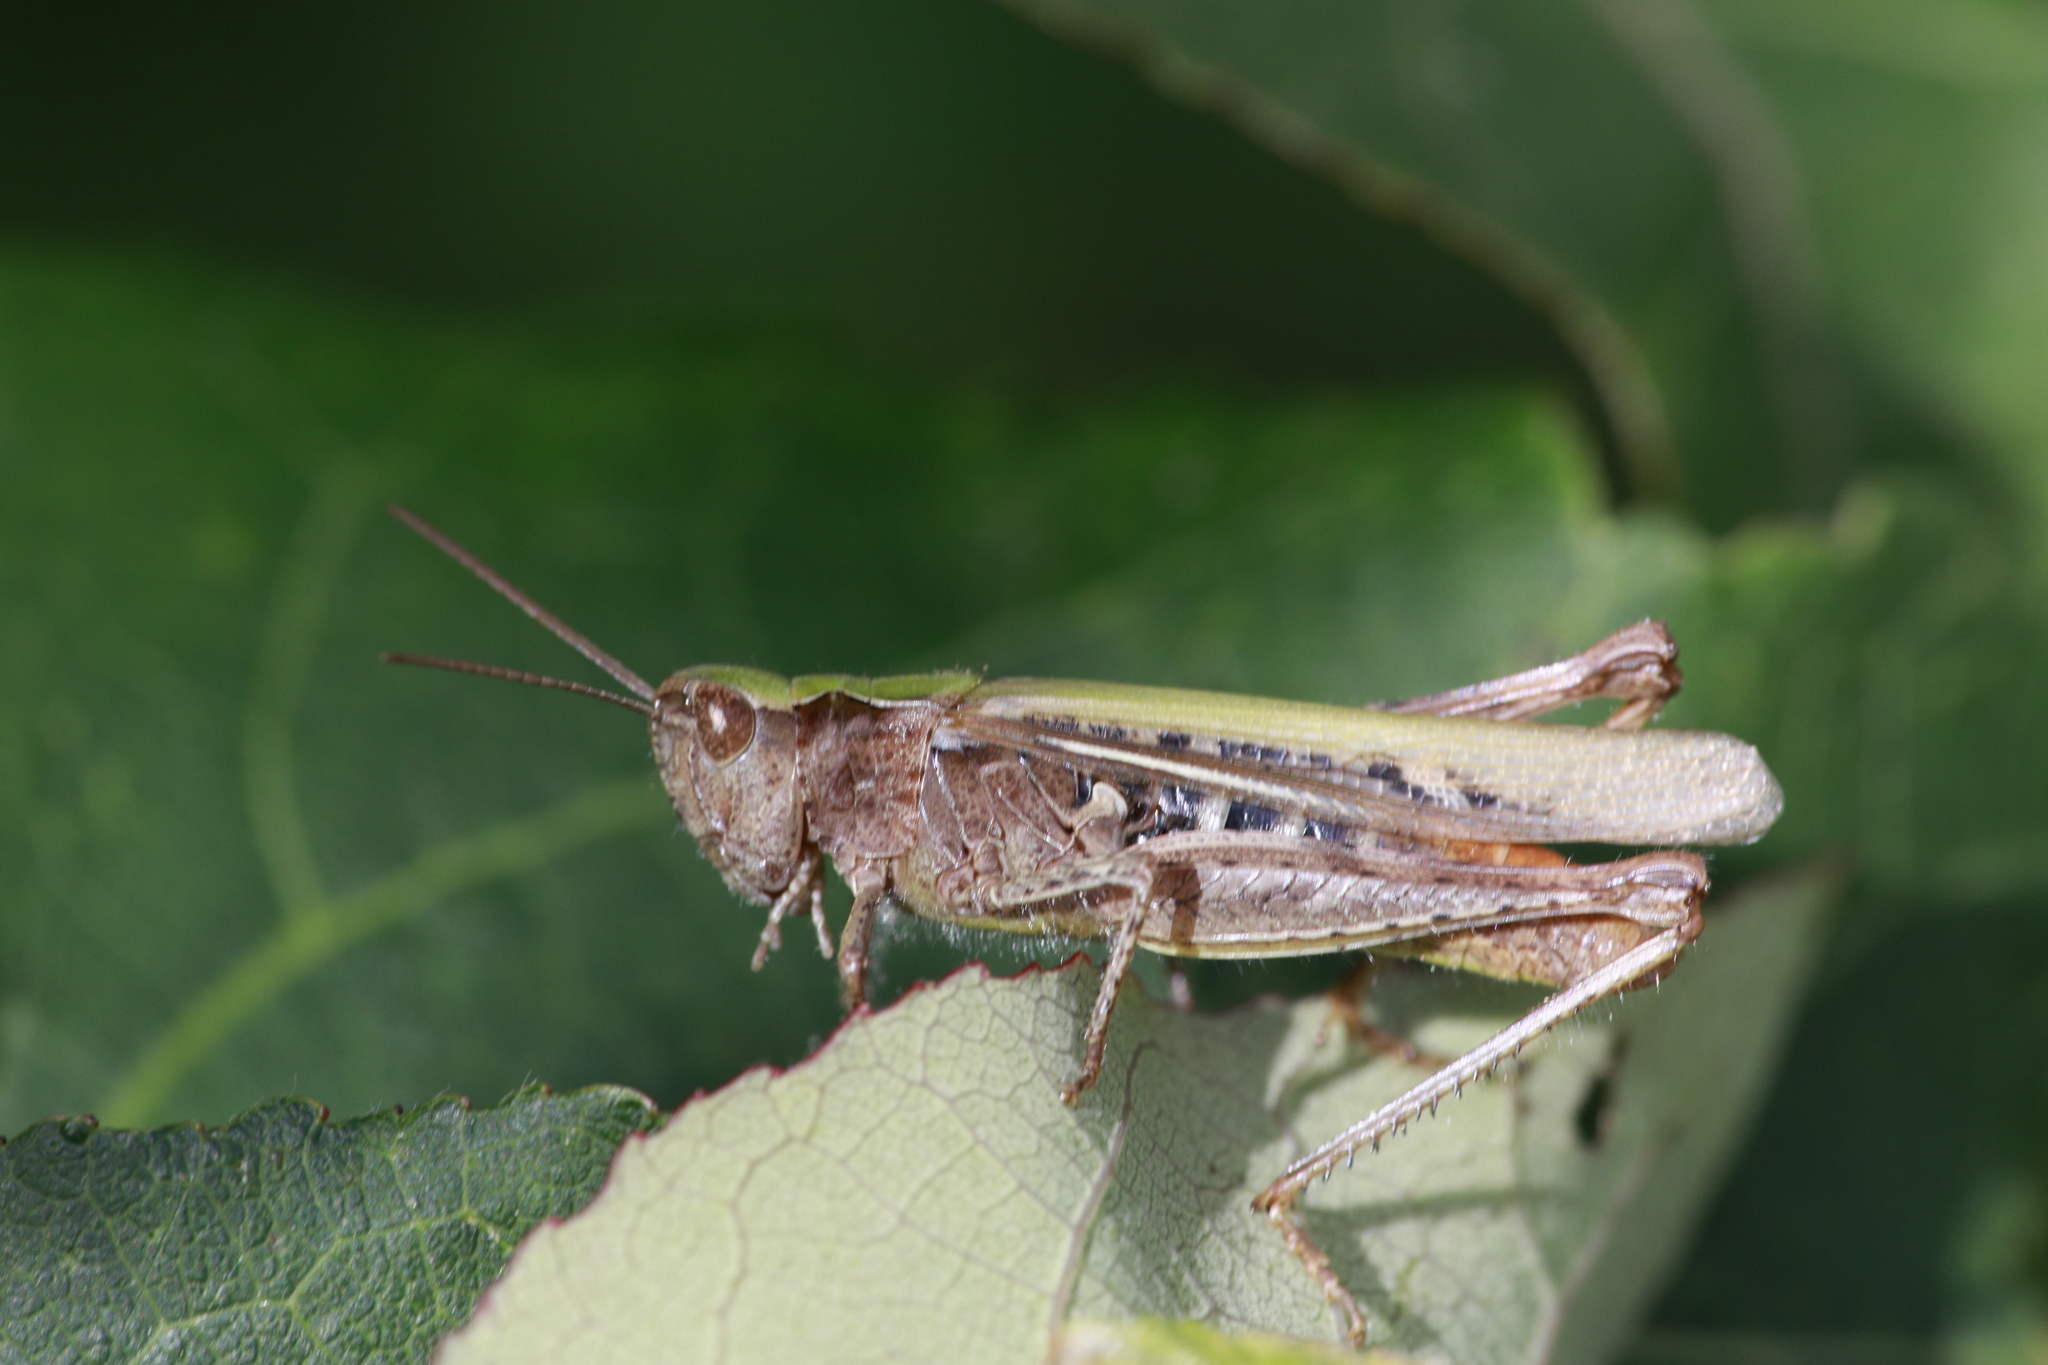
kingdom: Animalia
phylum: Arthropoda
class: Insecta
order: Orthoptera
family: Acrididae
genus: Chorthippus
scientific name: Chorthippus brunneus
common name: Field grasshopper
